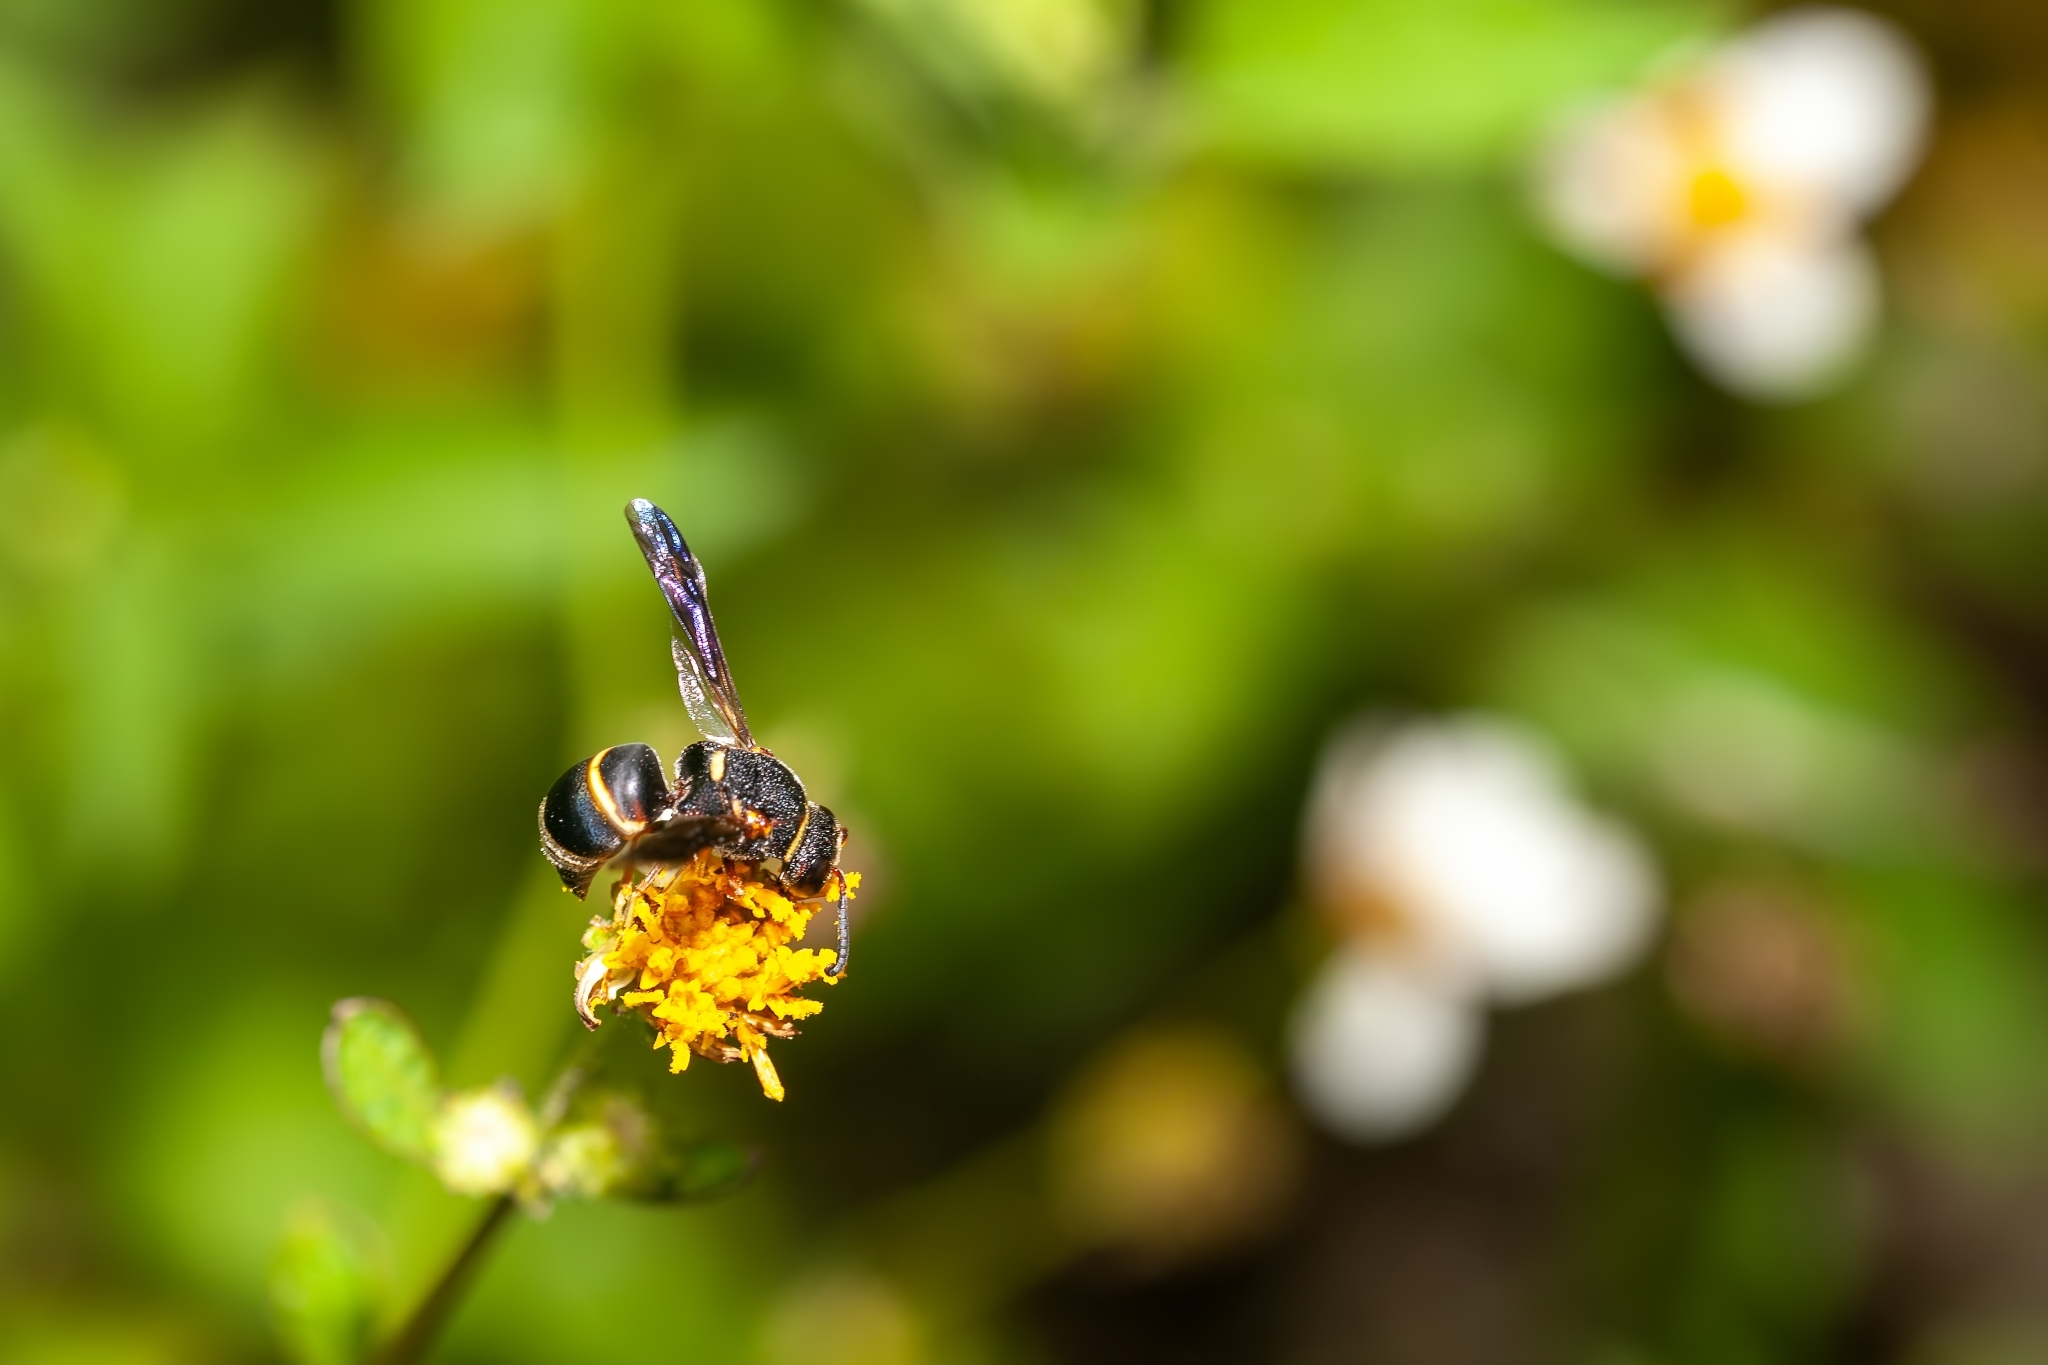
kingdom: Animalia
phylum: Arthropoda
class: Insecta
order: Hymenoptera
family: Eumenidae
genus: Euodynerus
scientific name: Euodynerus hidalgo
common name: Wasp
